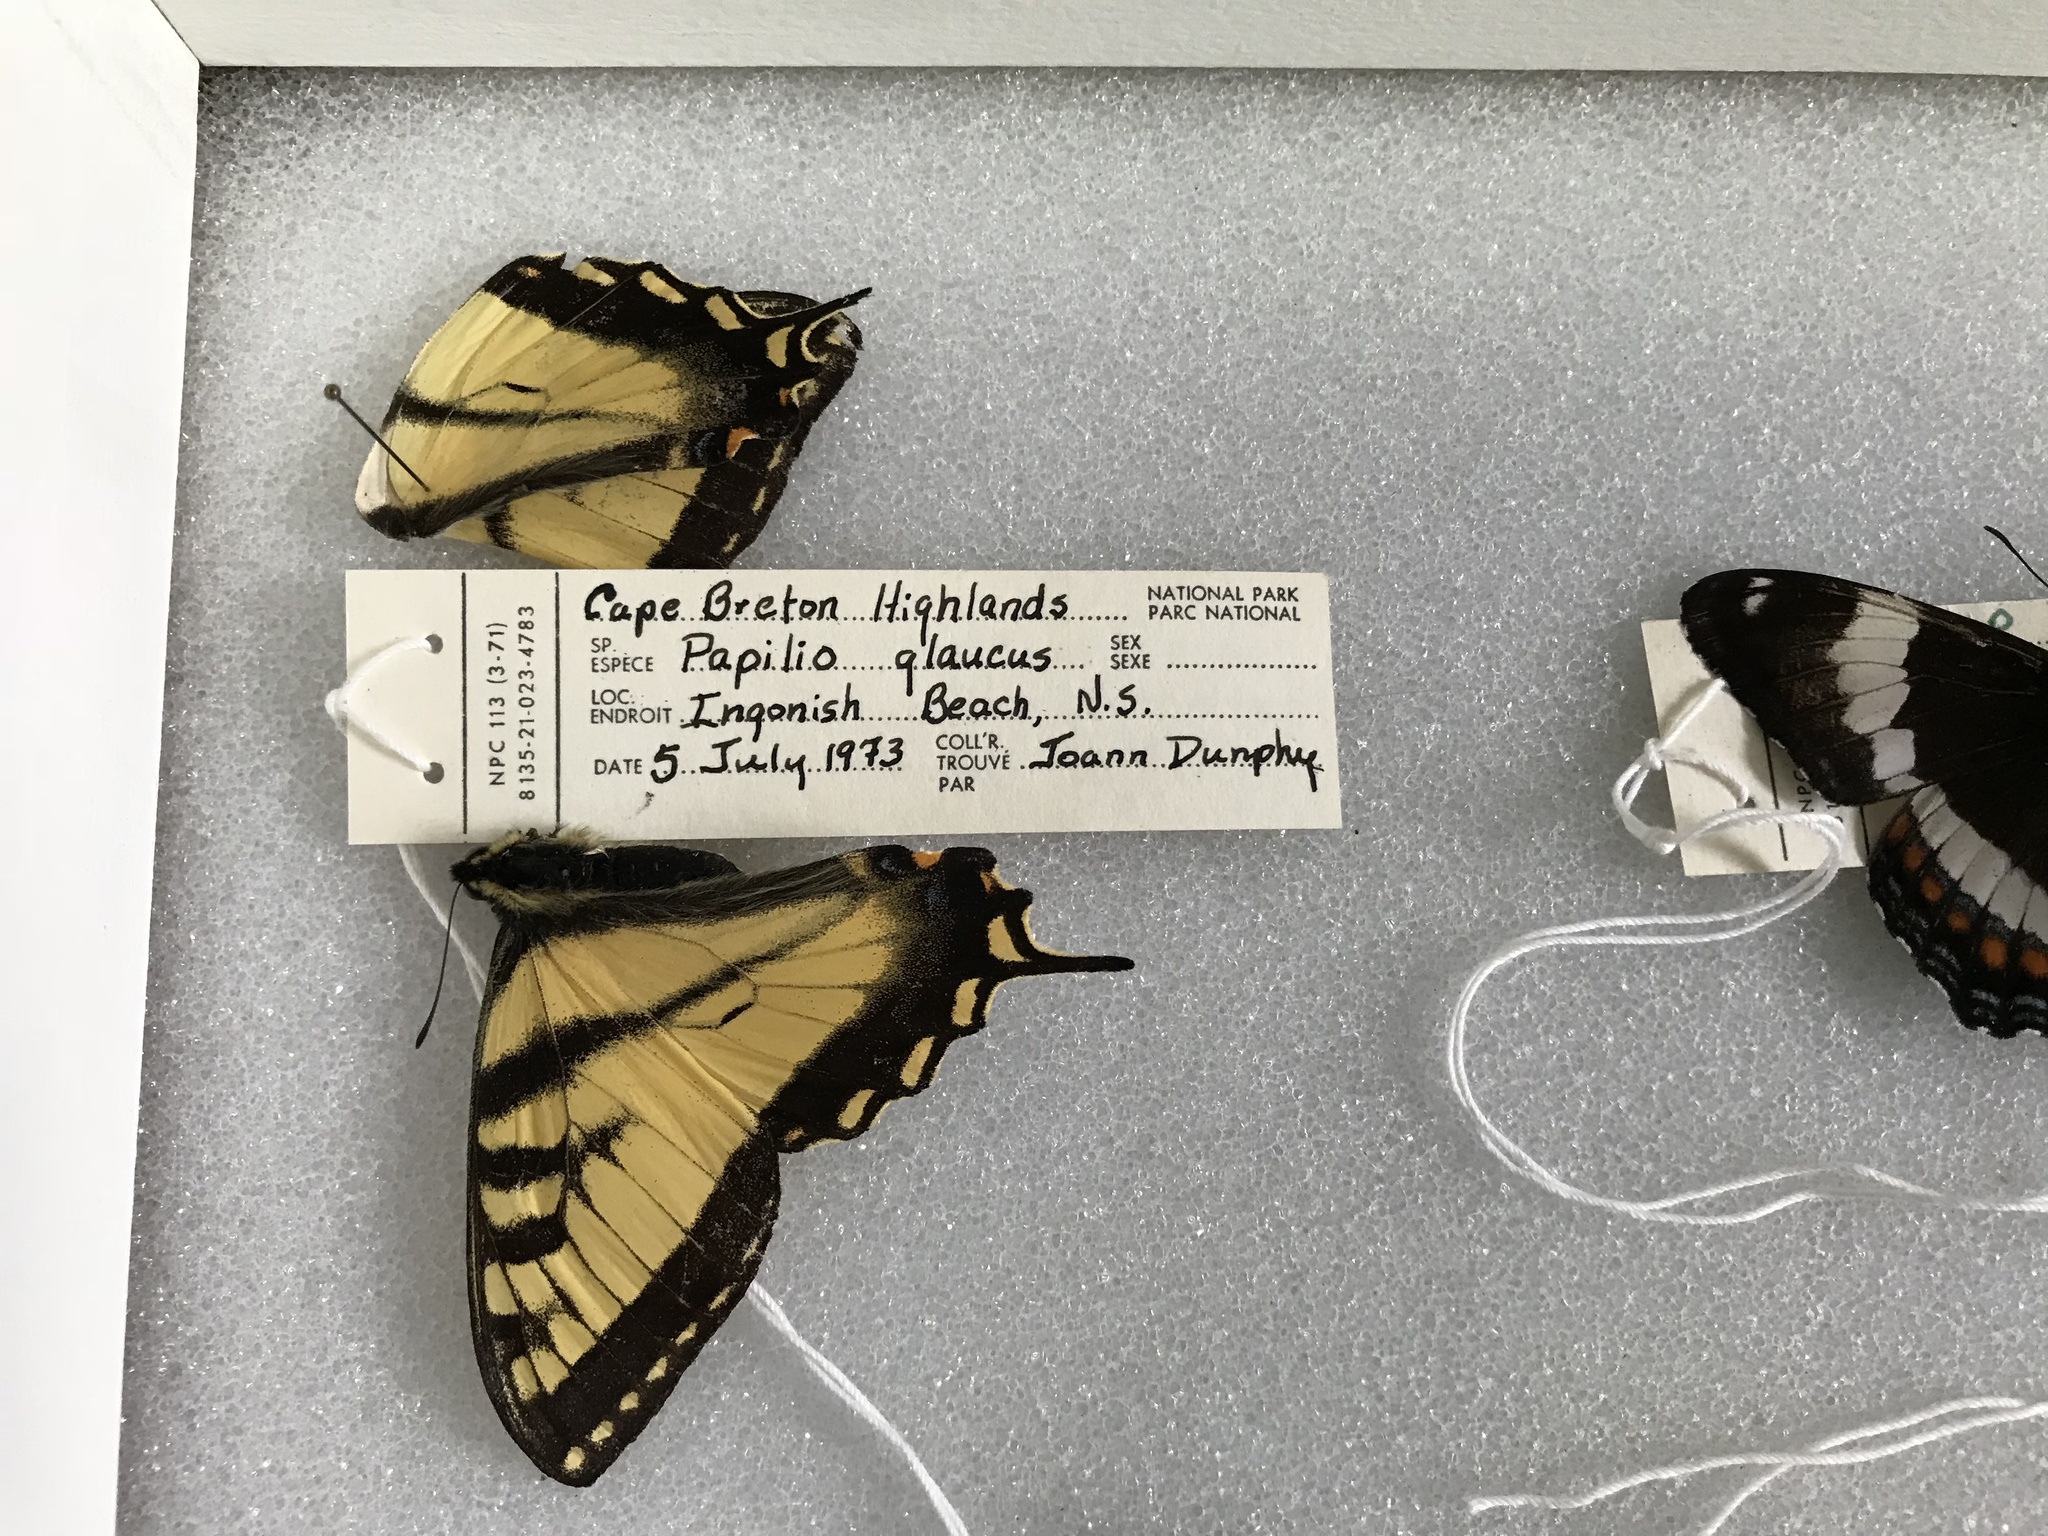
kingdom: Animalia
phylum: Arthropoda
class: Insecta
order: Lepidoptera
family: Papilionidae
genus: Papilio
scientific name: Papilio canadensis
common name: Canadian tiger swallowtail
